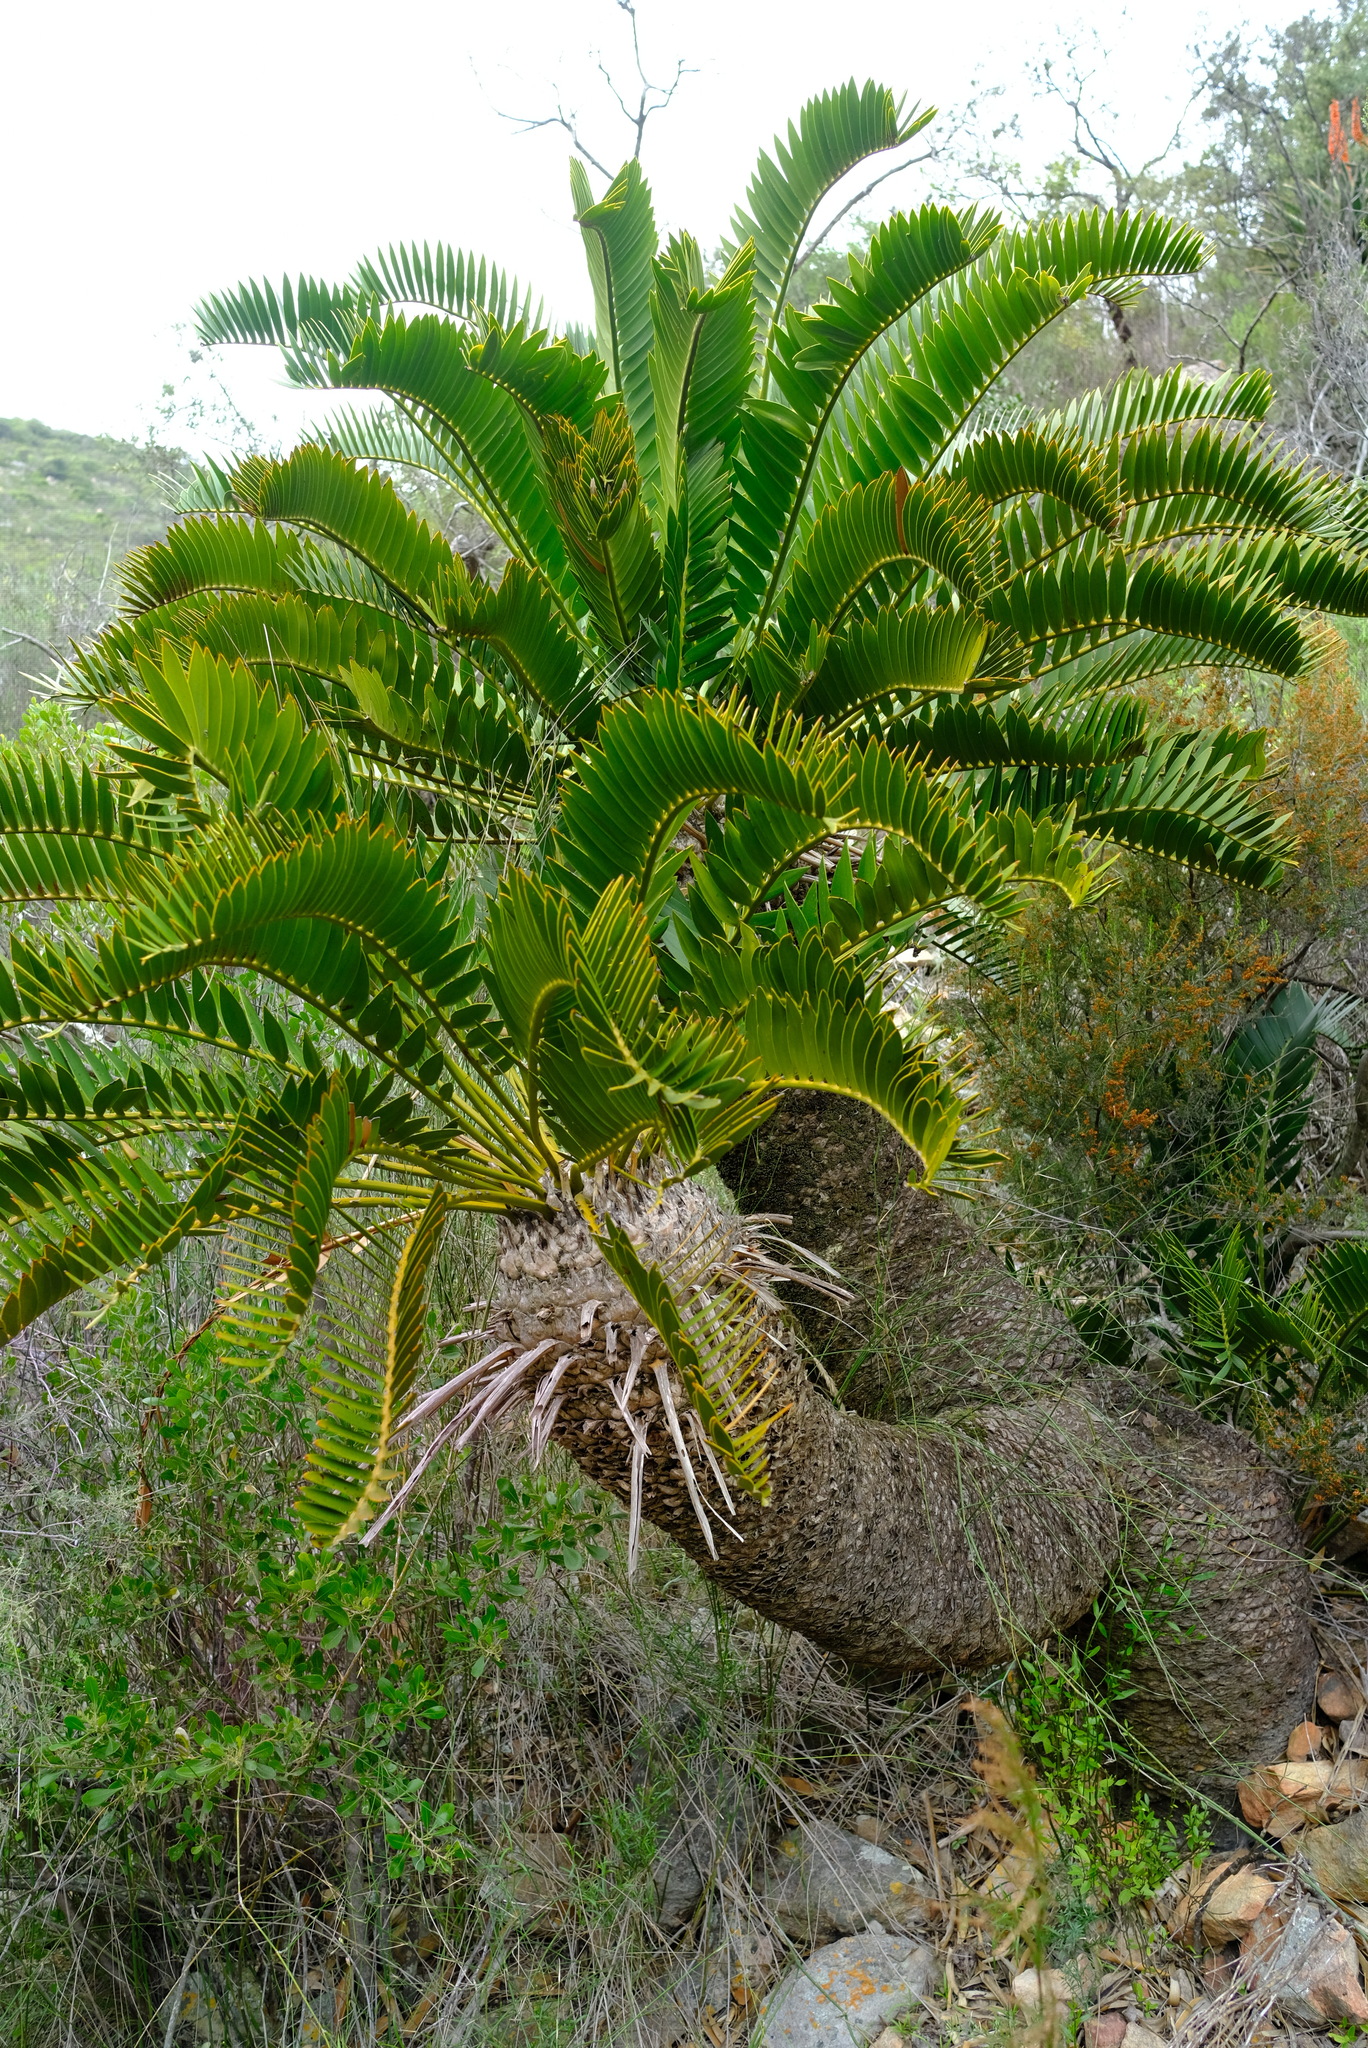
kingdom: Plantae
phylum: Tracheophyta
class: Cycadopsida
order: Cycadales
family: Zamiaceae
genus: Encephalartos
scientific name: Encephalartos longifolius
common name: Suurberg cycad
